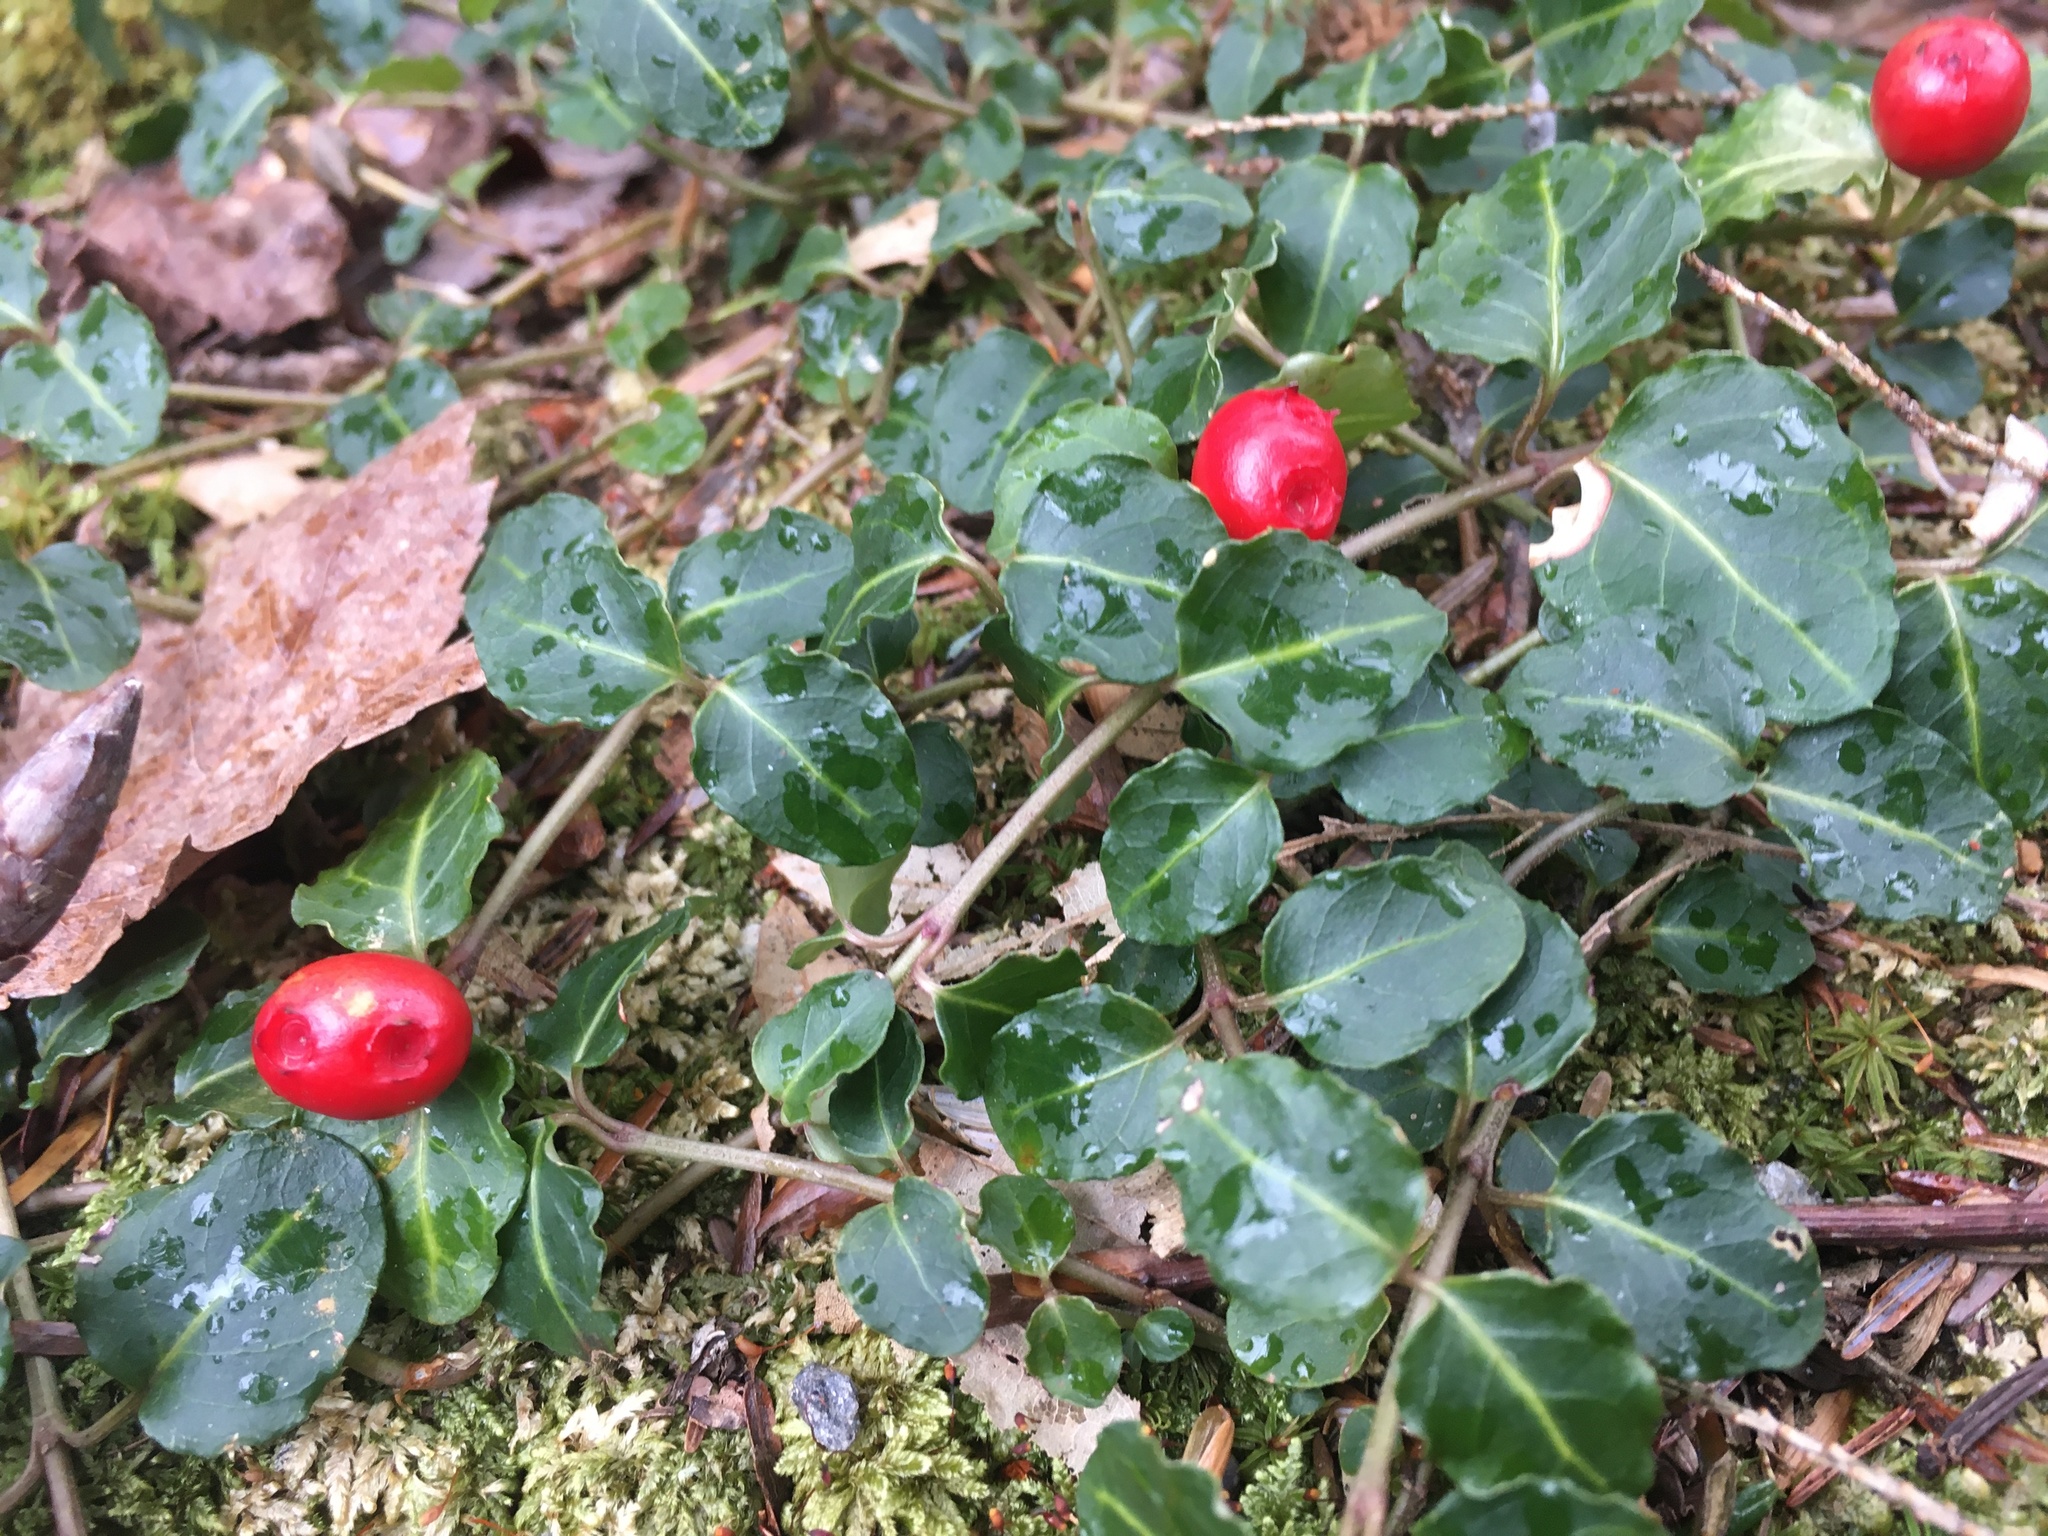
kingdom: Plantae
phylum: Tracheophyta
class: Magnoliopsida
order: Gentianales
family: Rubiaceae
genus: Mitchella
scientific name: Mitchella repens
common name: Partridge-berry
